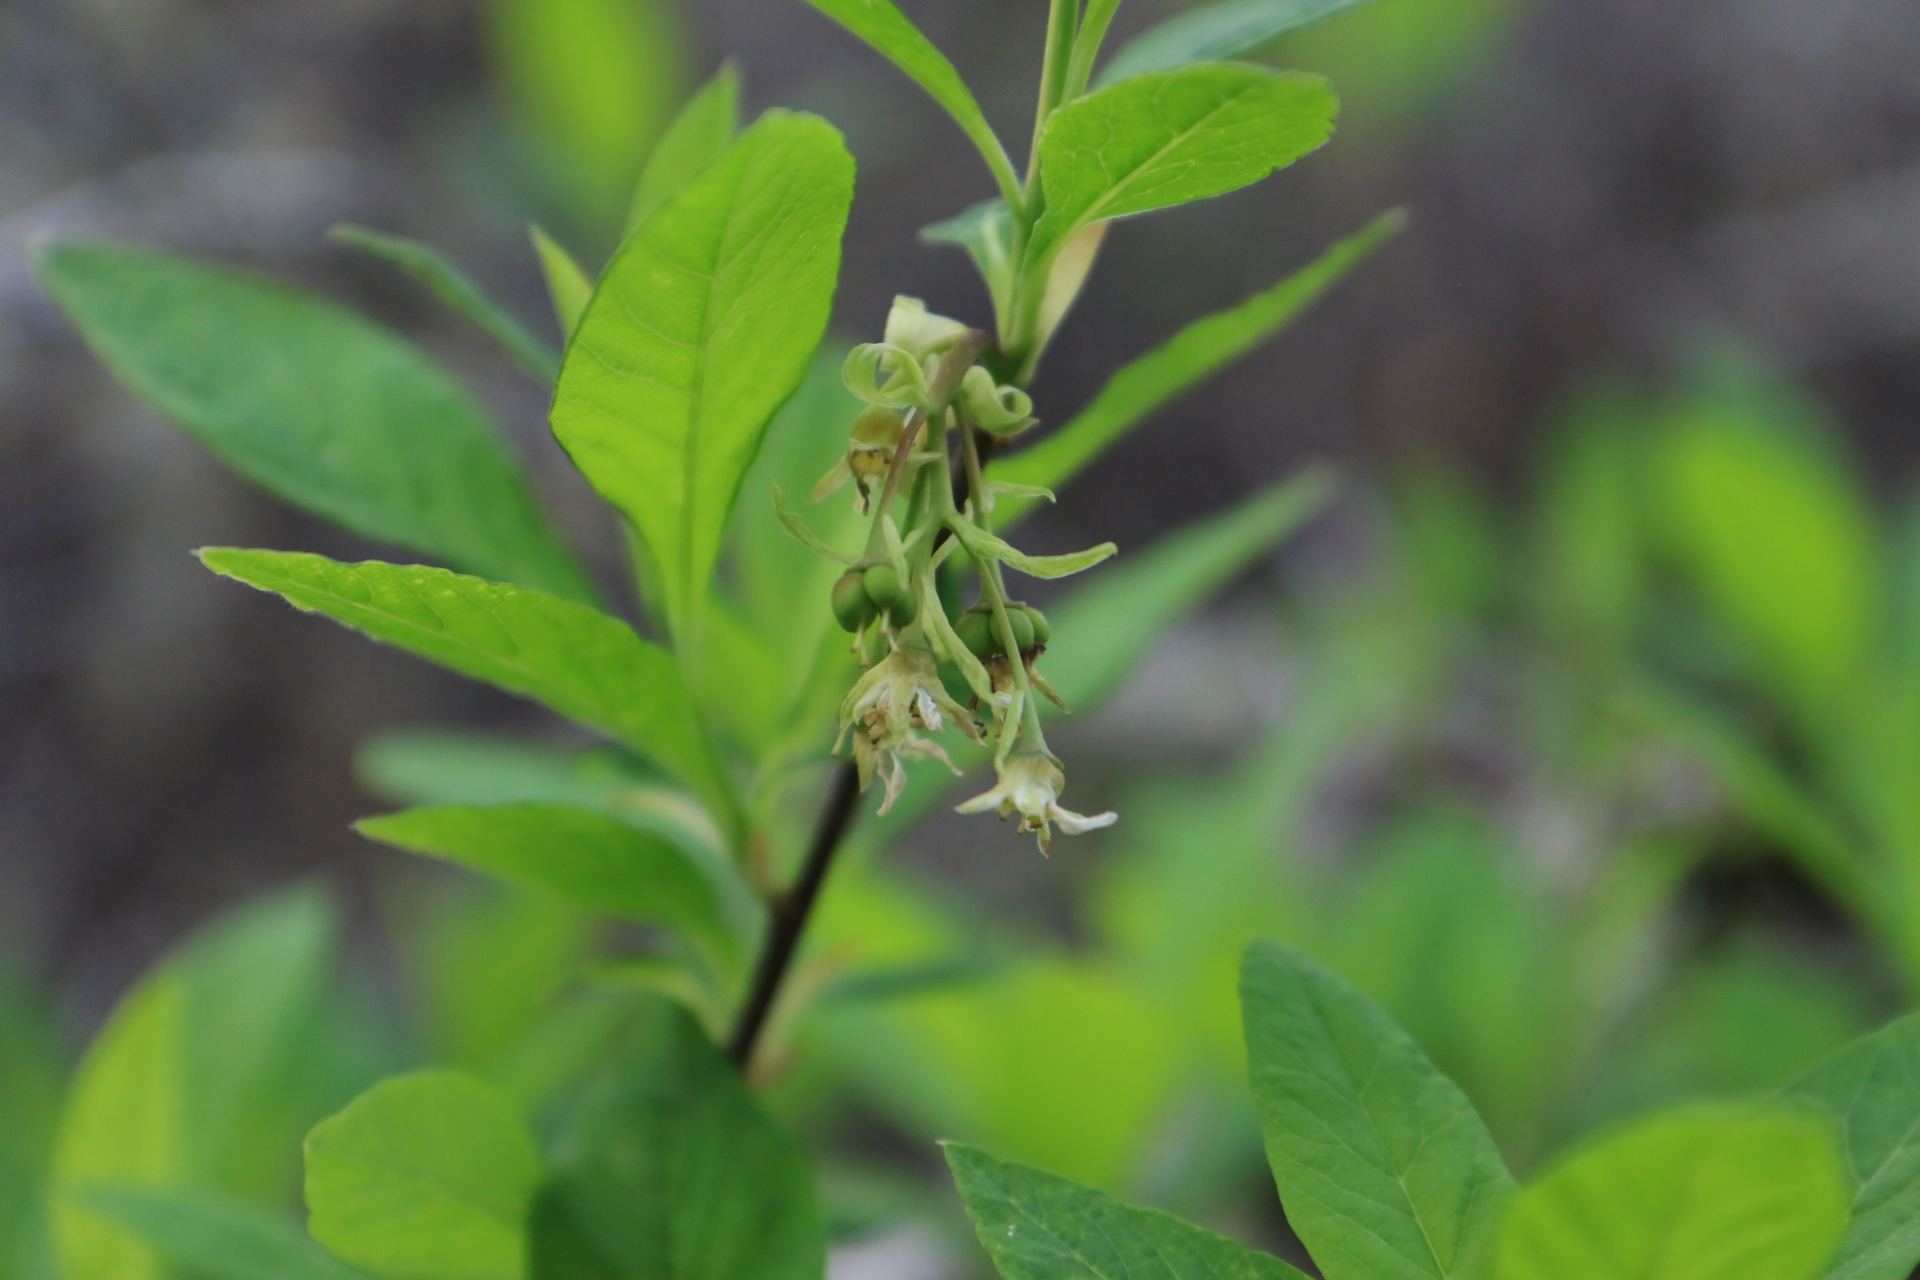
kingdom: Plantae
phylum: Tracheophyta
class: Magnoliopsida
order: Rosales
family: Rosaceae
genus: Oemleria
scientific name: Oemleria cerasiformis
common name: Osoberry
